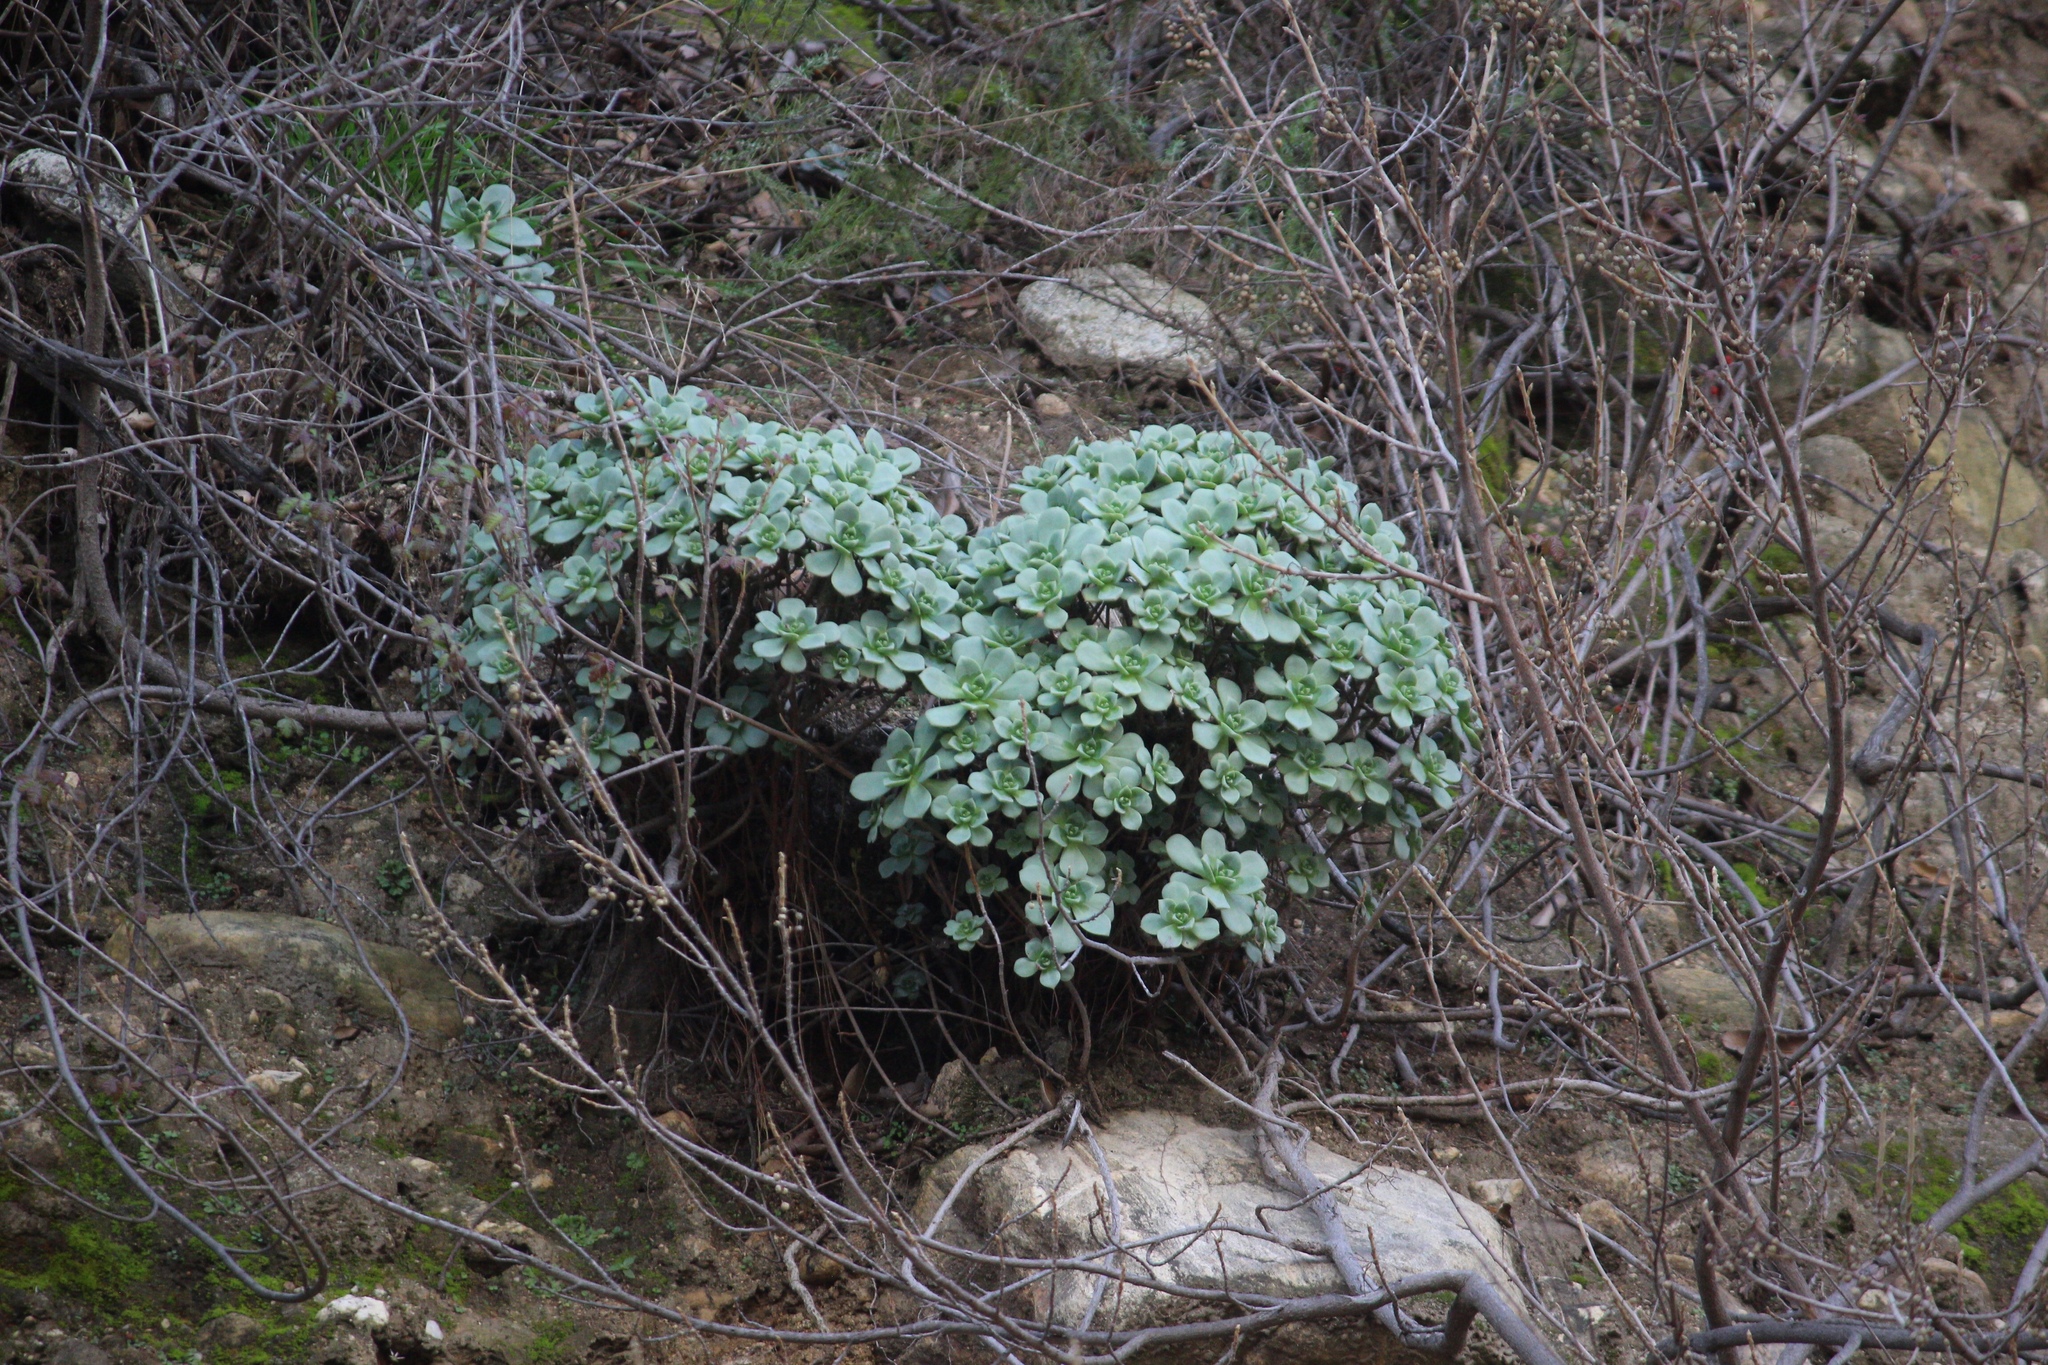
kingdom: Plantae
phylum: Tracheophyta
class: Magnoliopsida
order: Saxifragales
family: Crassulaceae
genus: Aeonium
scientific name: Aeonium haworthii
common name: Haworth's aeonium
